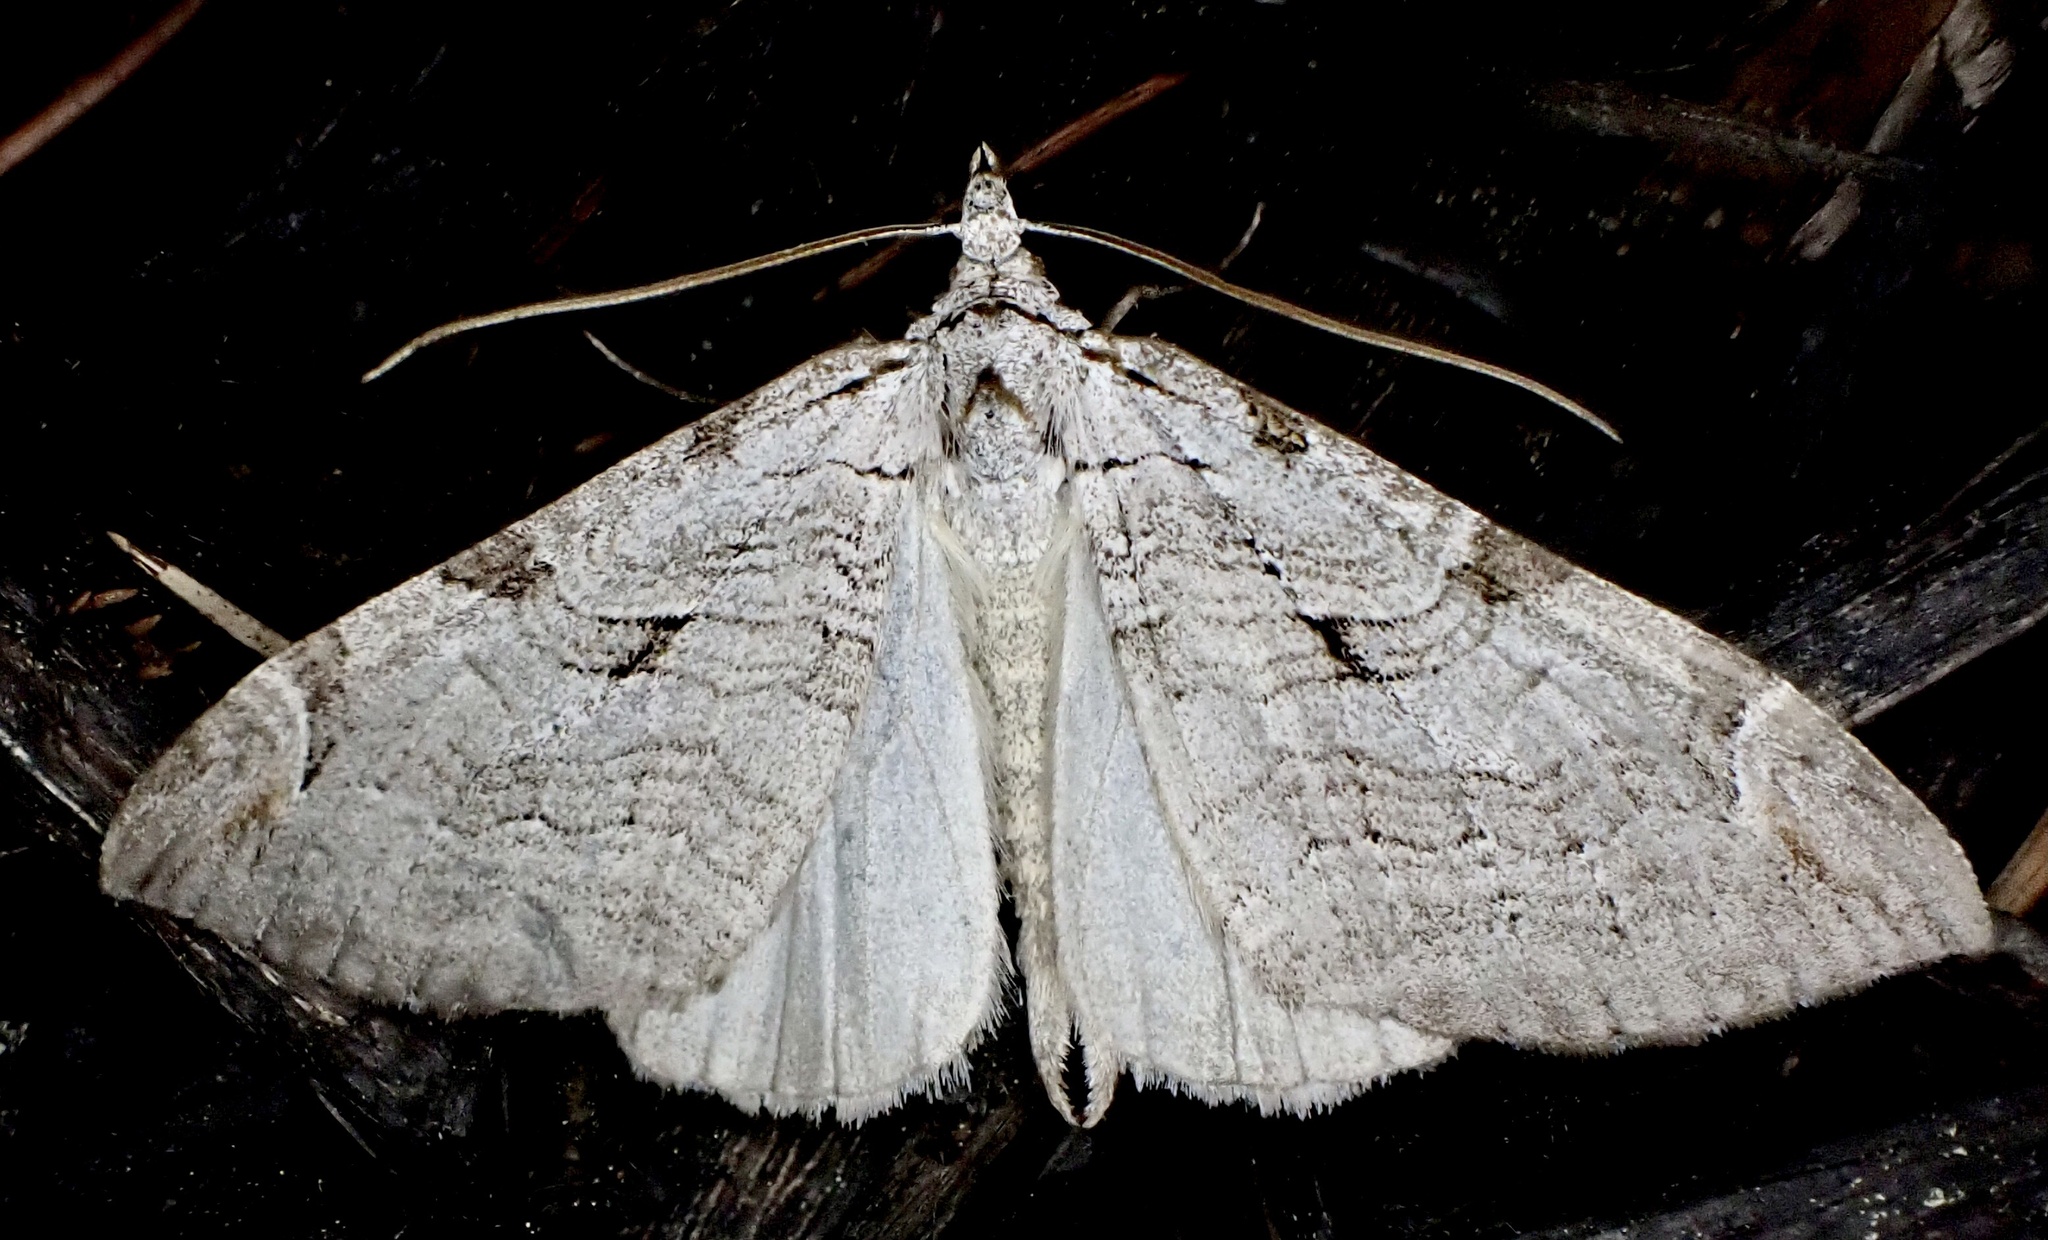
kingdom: Animalia
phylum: Arthropoda
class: Insecta
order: Lepidoptera
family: Geometridae
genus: Aplocera
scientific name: Aplocera plagiata
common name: Treble-bar
